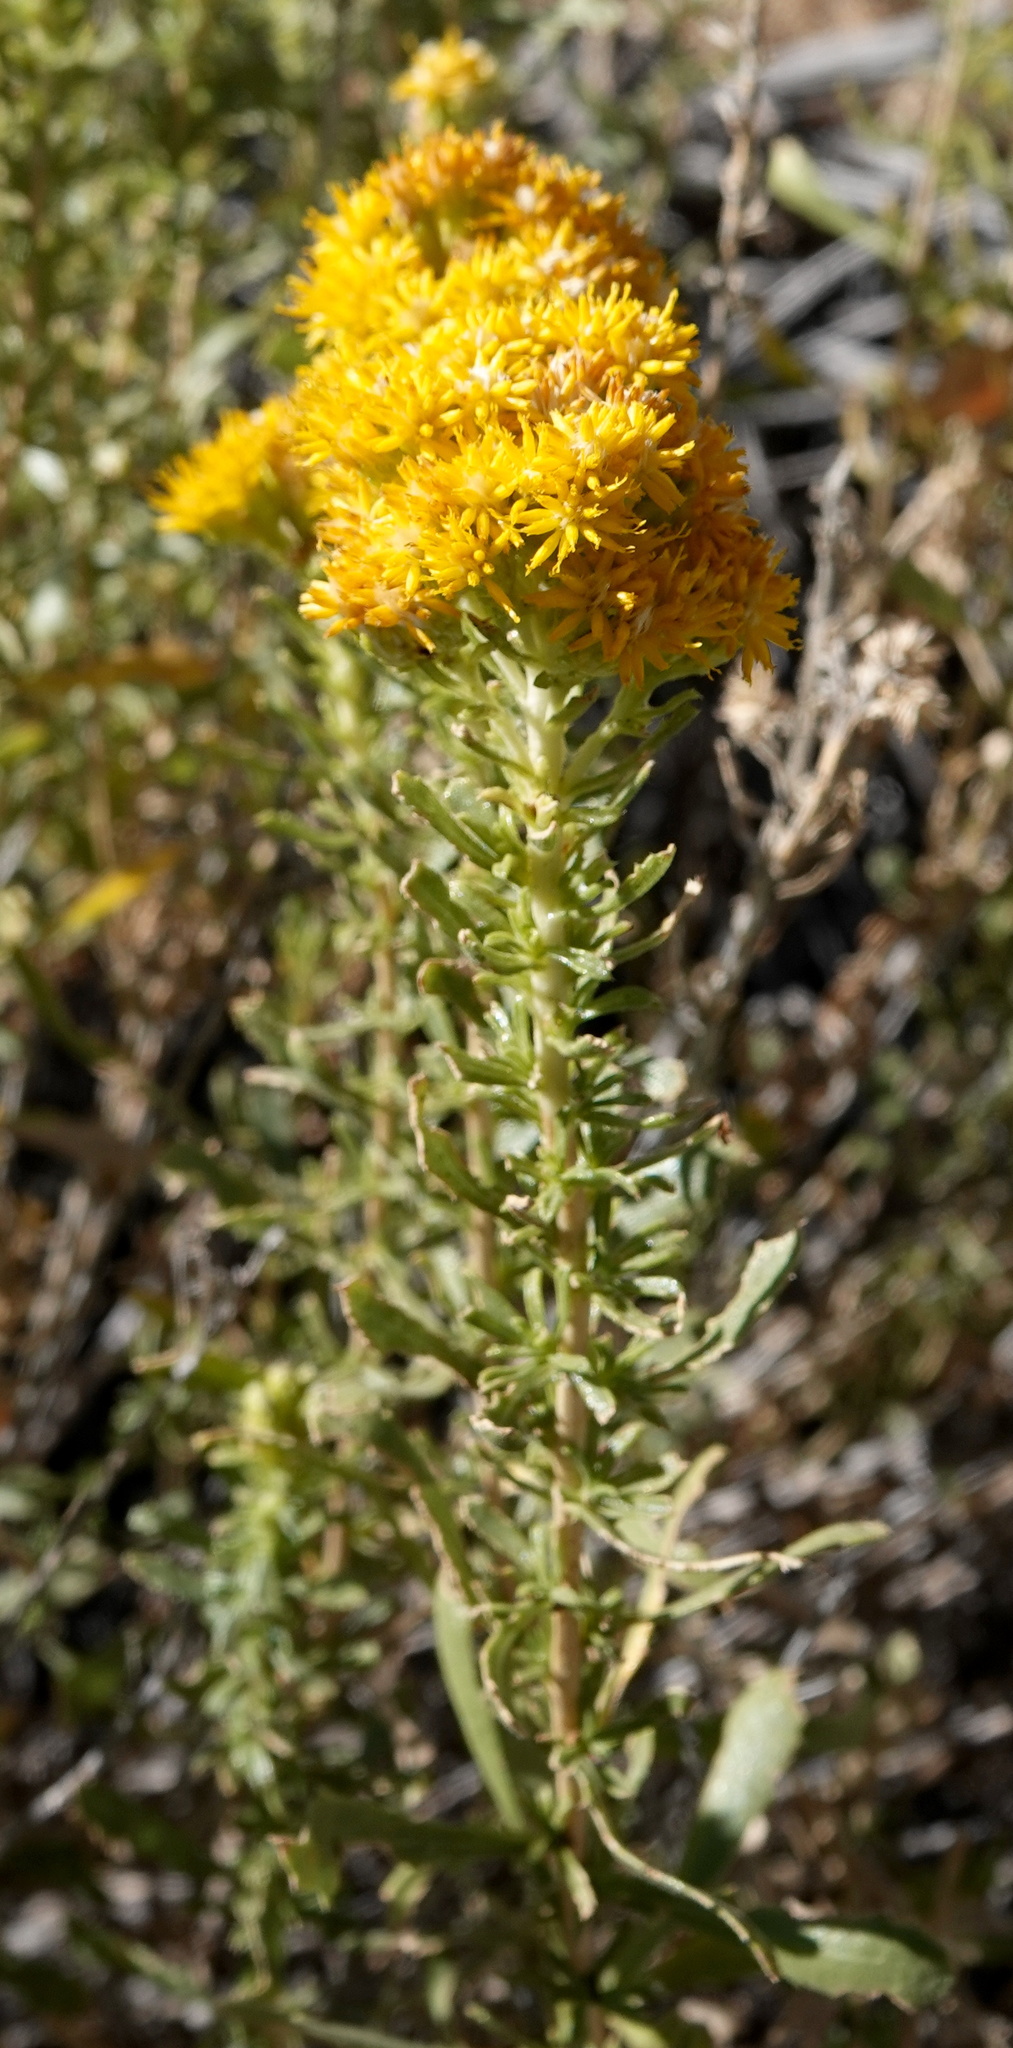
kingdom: Plantae
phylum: Tracheophyta
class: Magnoliopsida
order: Asterales
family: Asteraceae
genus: Isocoma
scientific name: Isocoma acradenia
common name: Alkali jimmyweed
